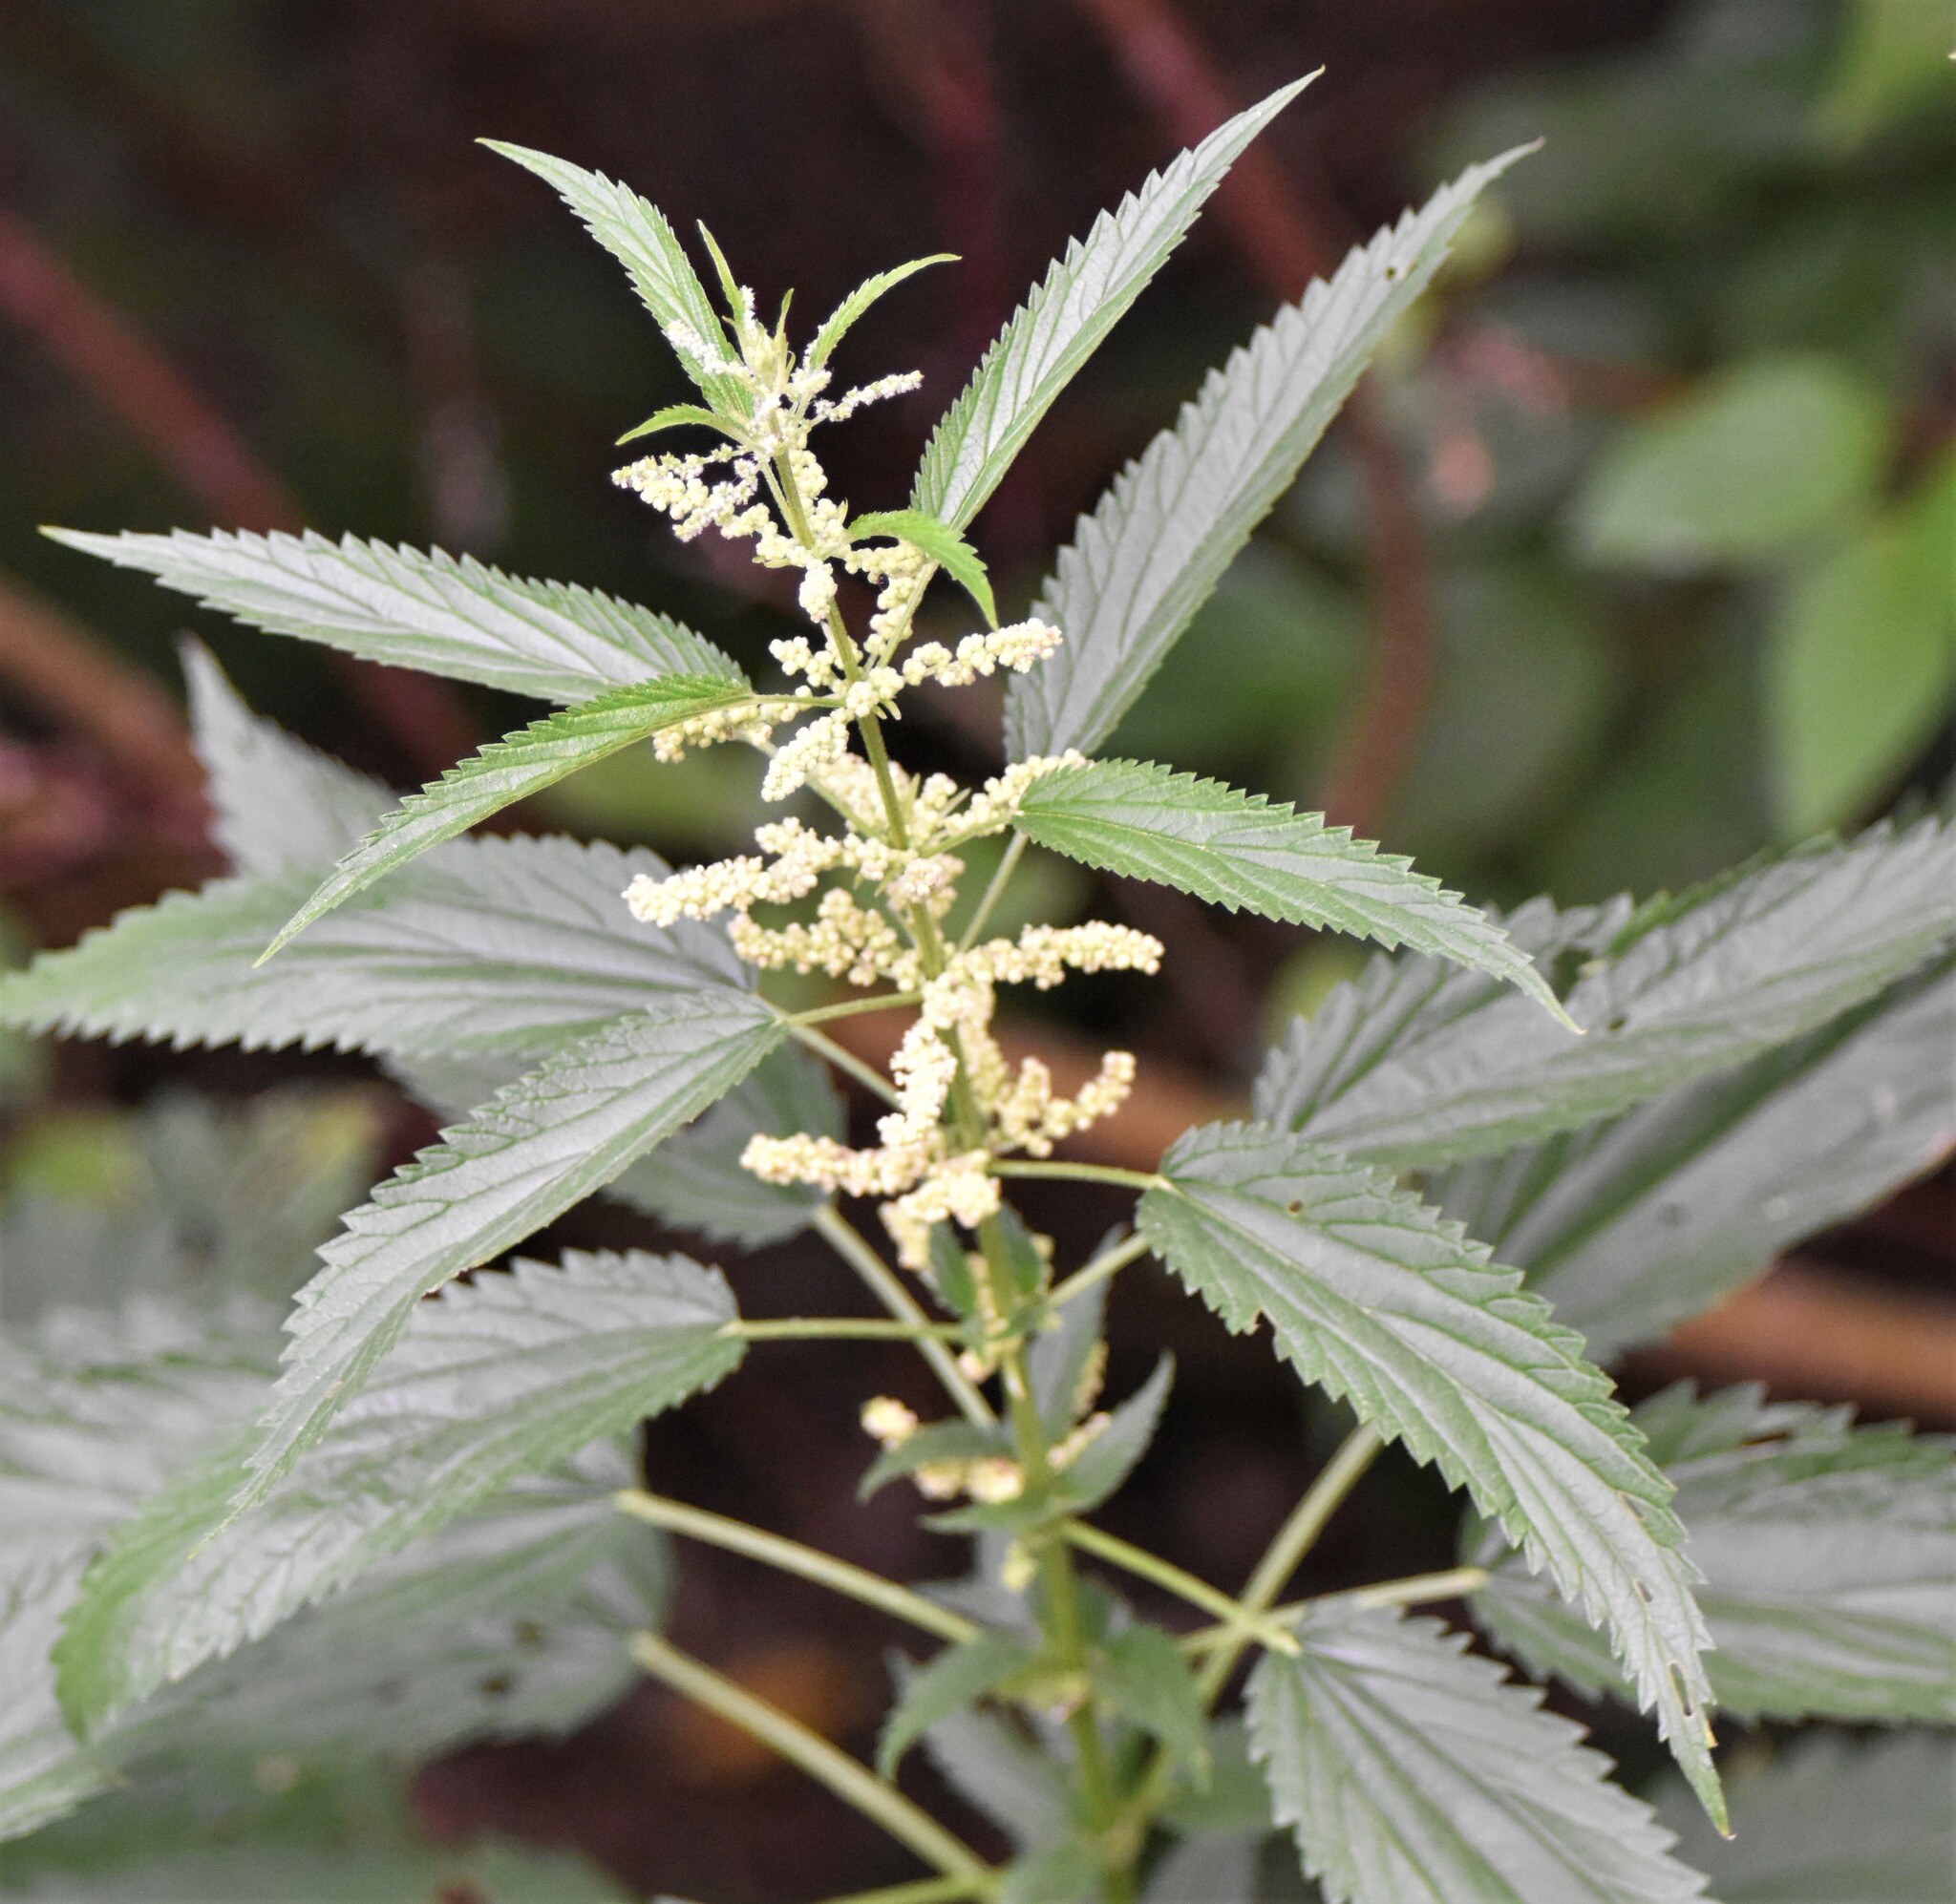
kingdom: Plantae
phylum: Tracheophyta
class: Magnoliopsida
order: Rosales
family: Urticaceae
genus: Urtica
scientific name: Urtica gracilis
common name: Slender stinging nettle
